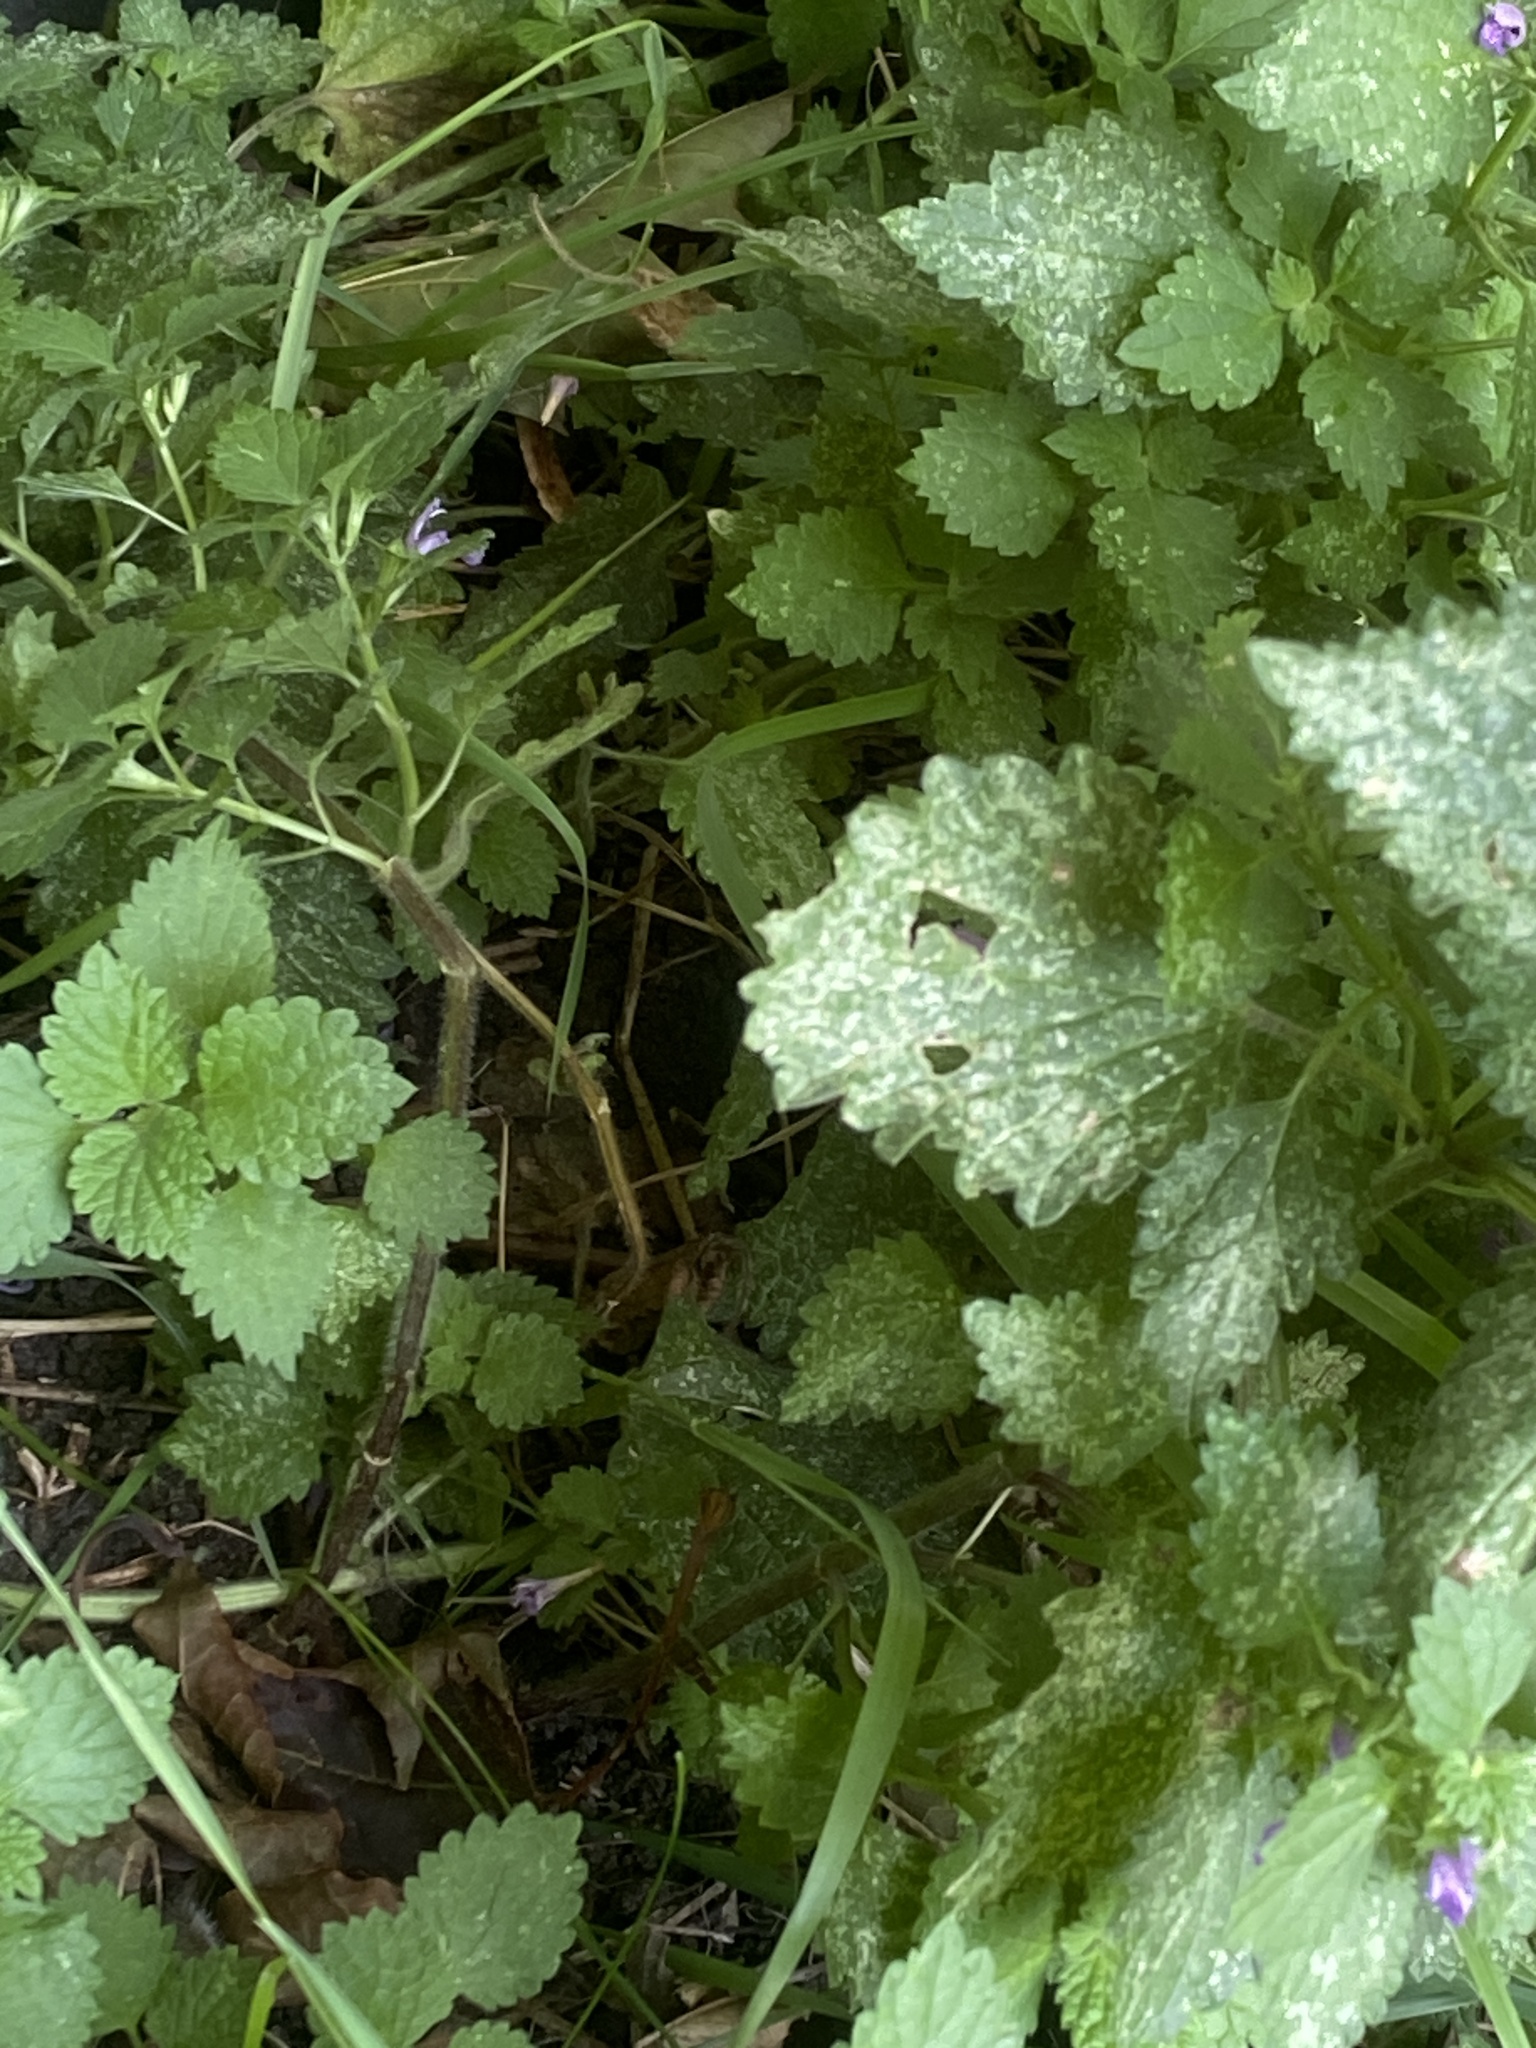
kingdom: Plantae
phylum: Tracheophyta
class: Magnoliopsida
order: Lamiales
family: Lamiaceae
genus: Ballota
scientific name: Ballota nigra
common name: Black horehound
